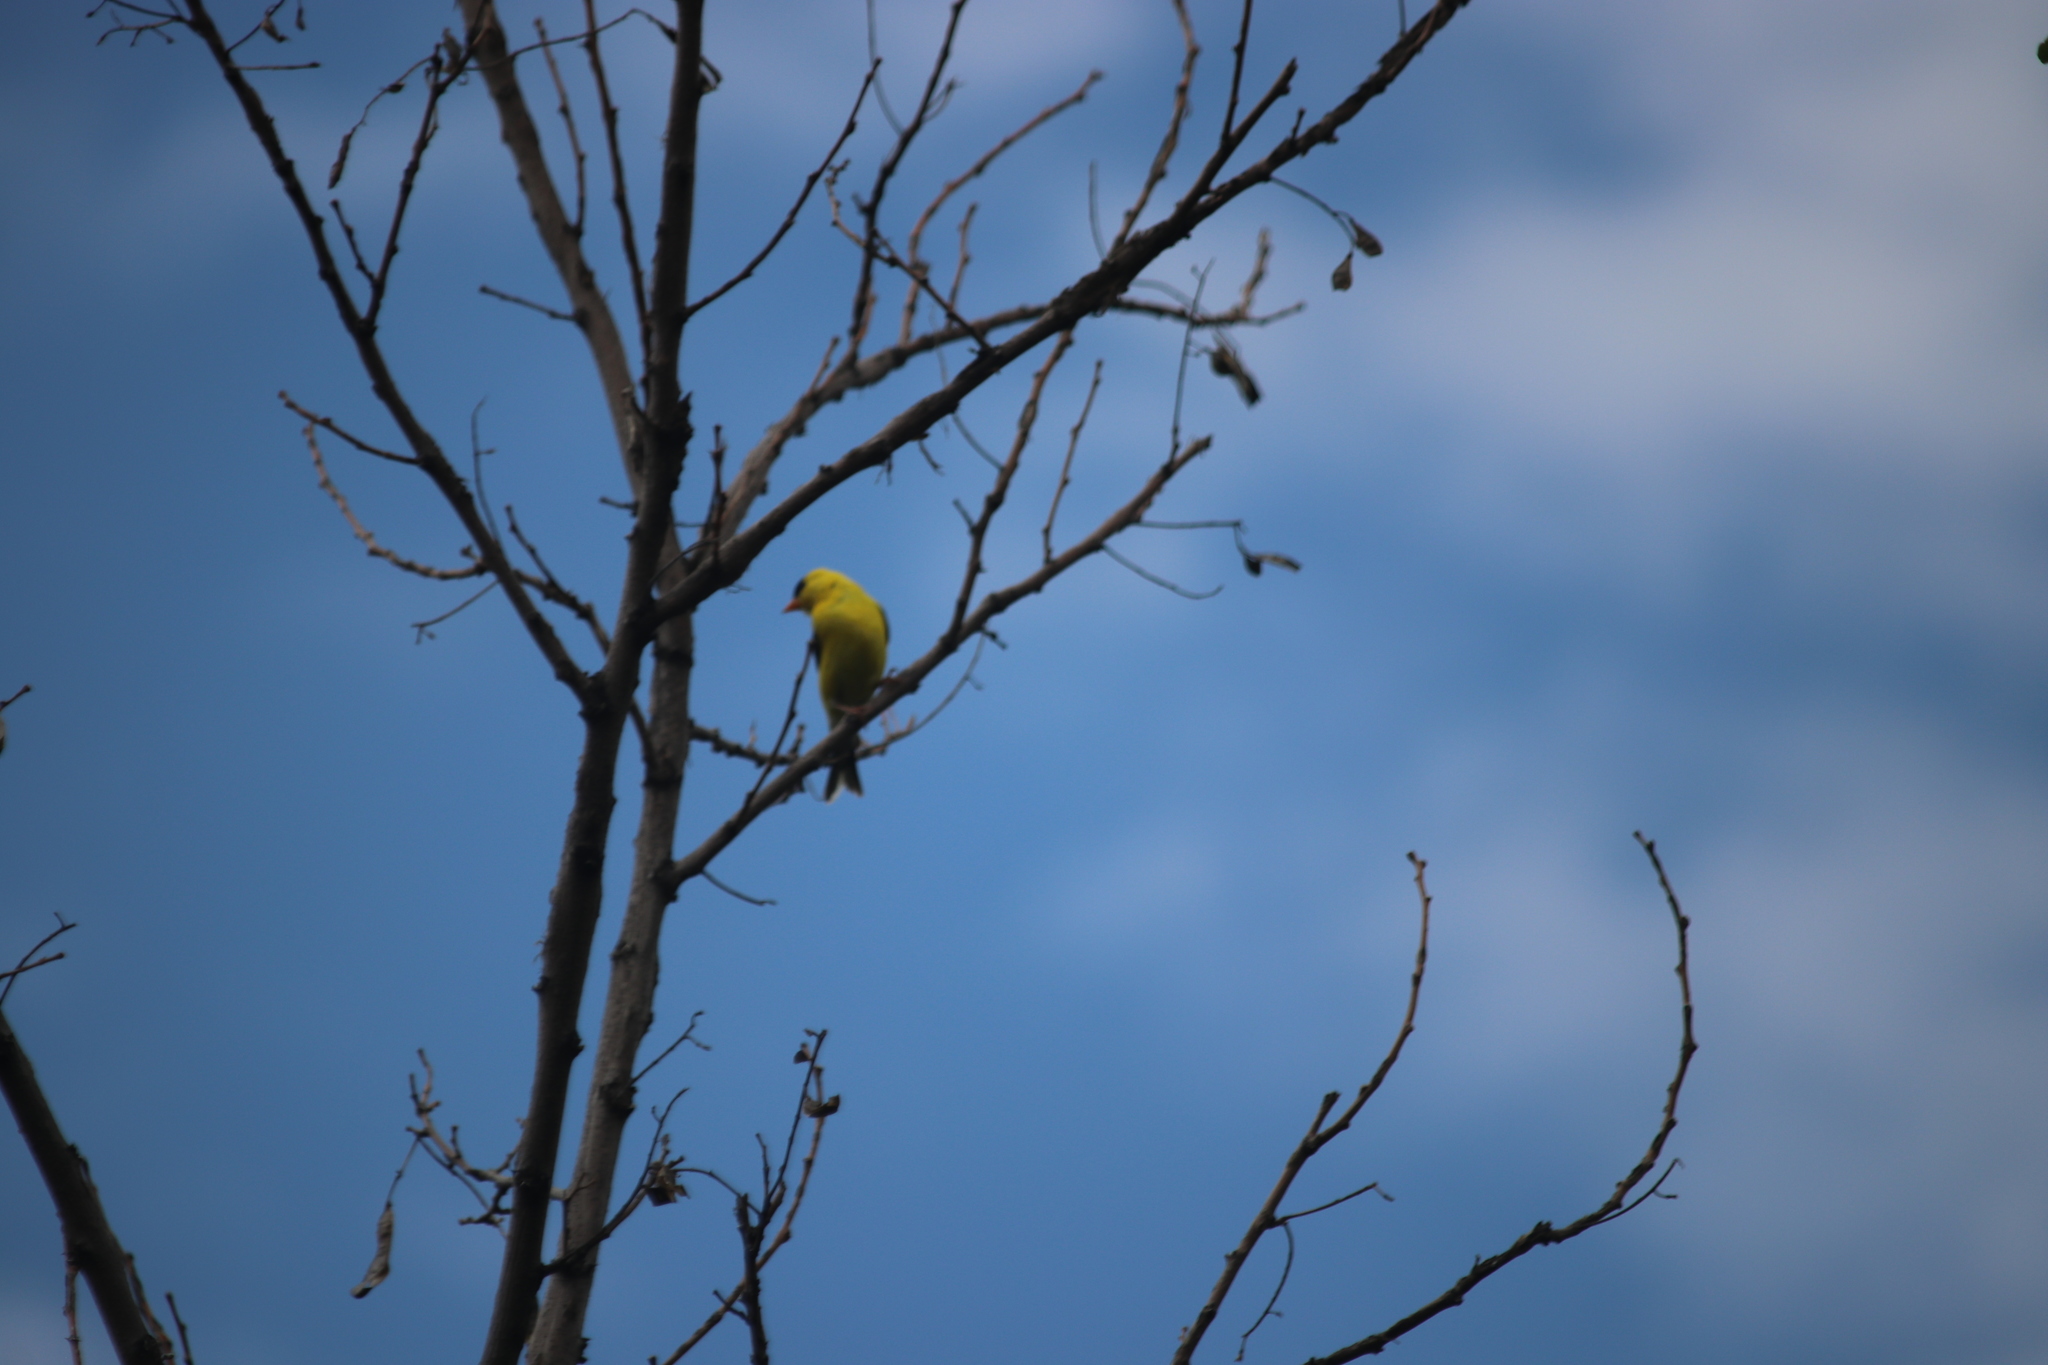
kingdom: Animalia
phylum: Chordata
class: Aves
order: Passeriformes
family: Fringillidae
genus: Spinus
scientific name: Spinus tristis
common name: American goldfinch
